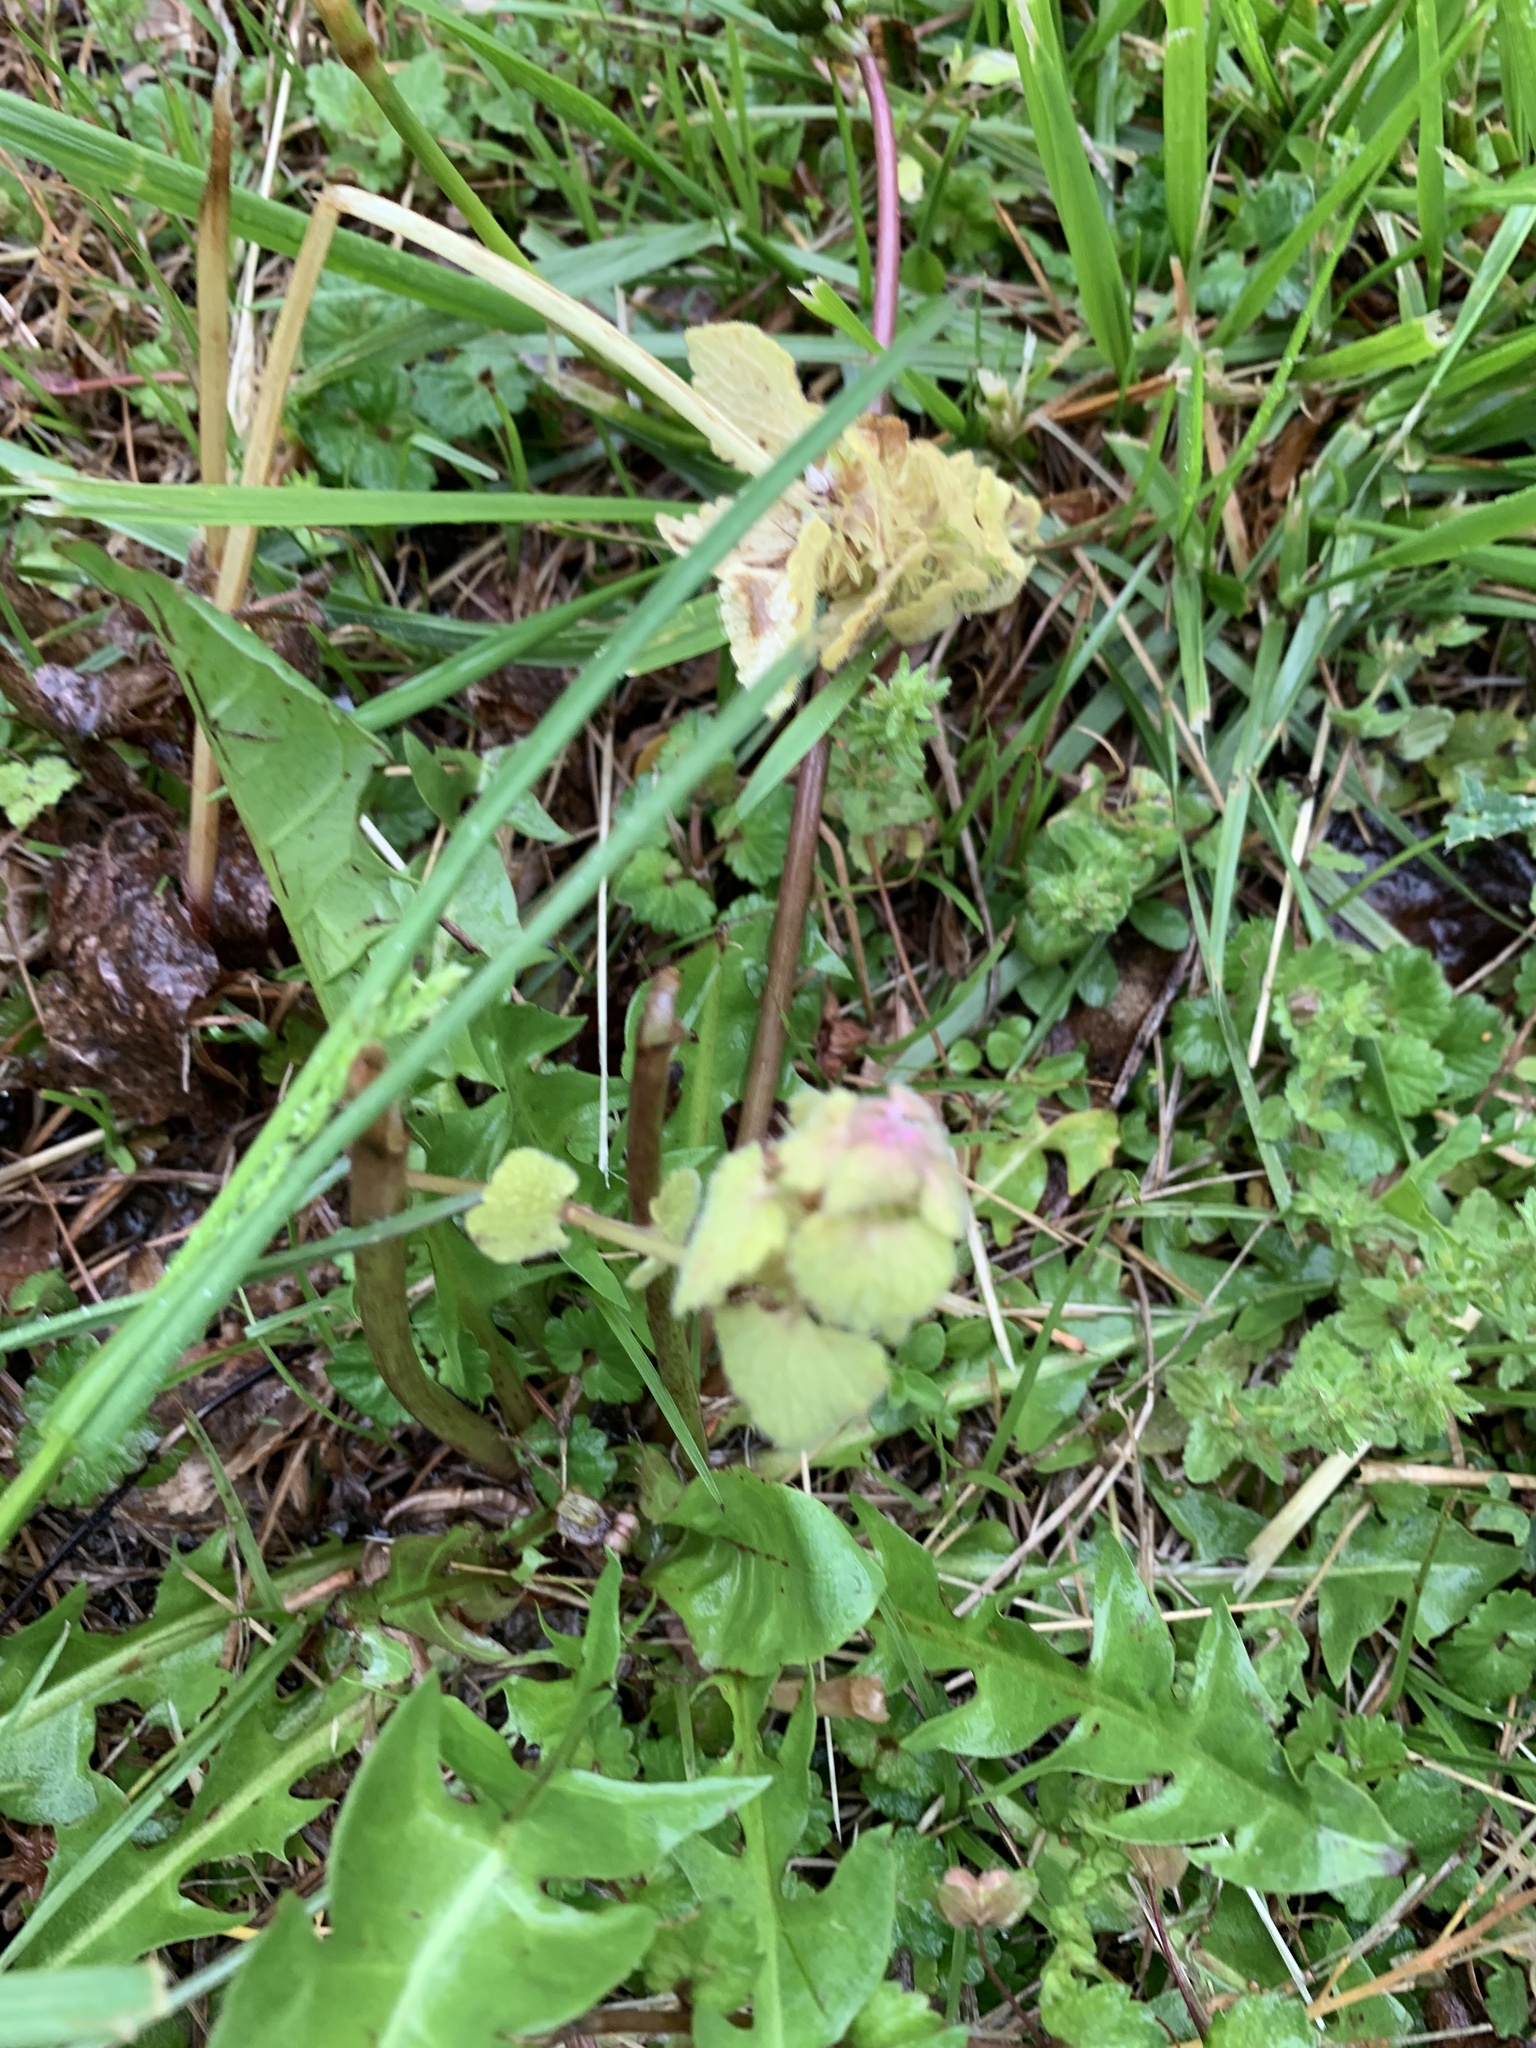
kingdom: Plantae
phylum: Tracheophyta
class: Magnoliopsida
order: Lamiales
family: Lamiaceae
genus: Lamium
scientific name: Lamium purpureum
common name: Red dead-nettle
